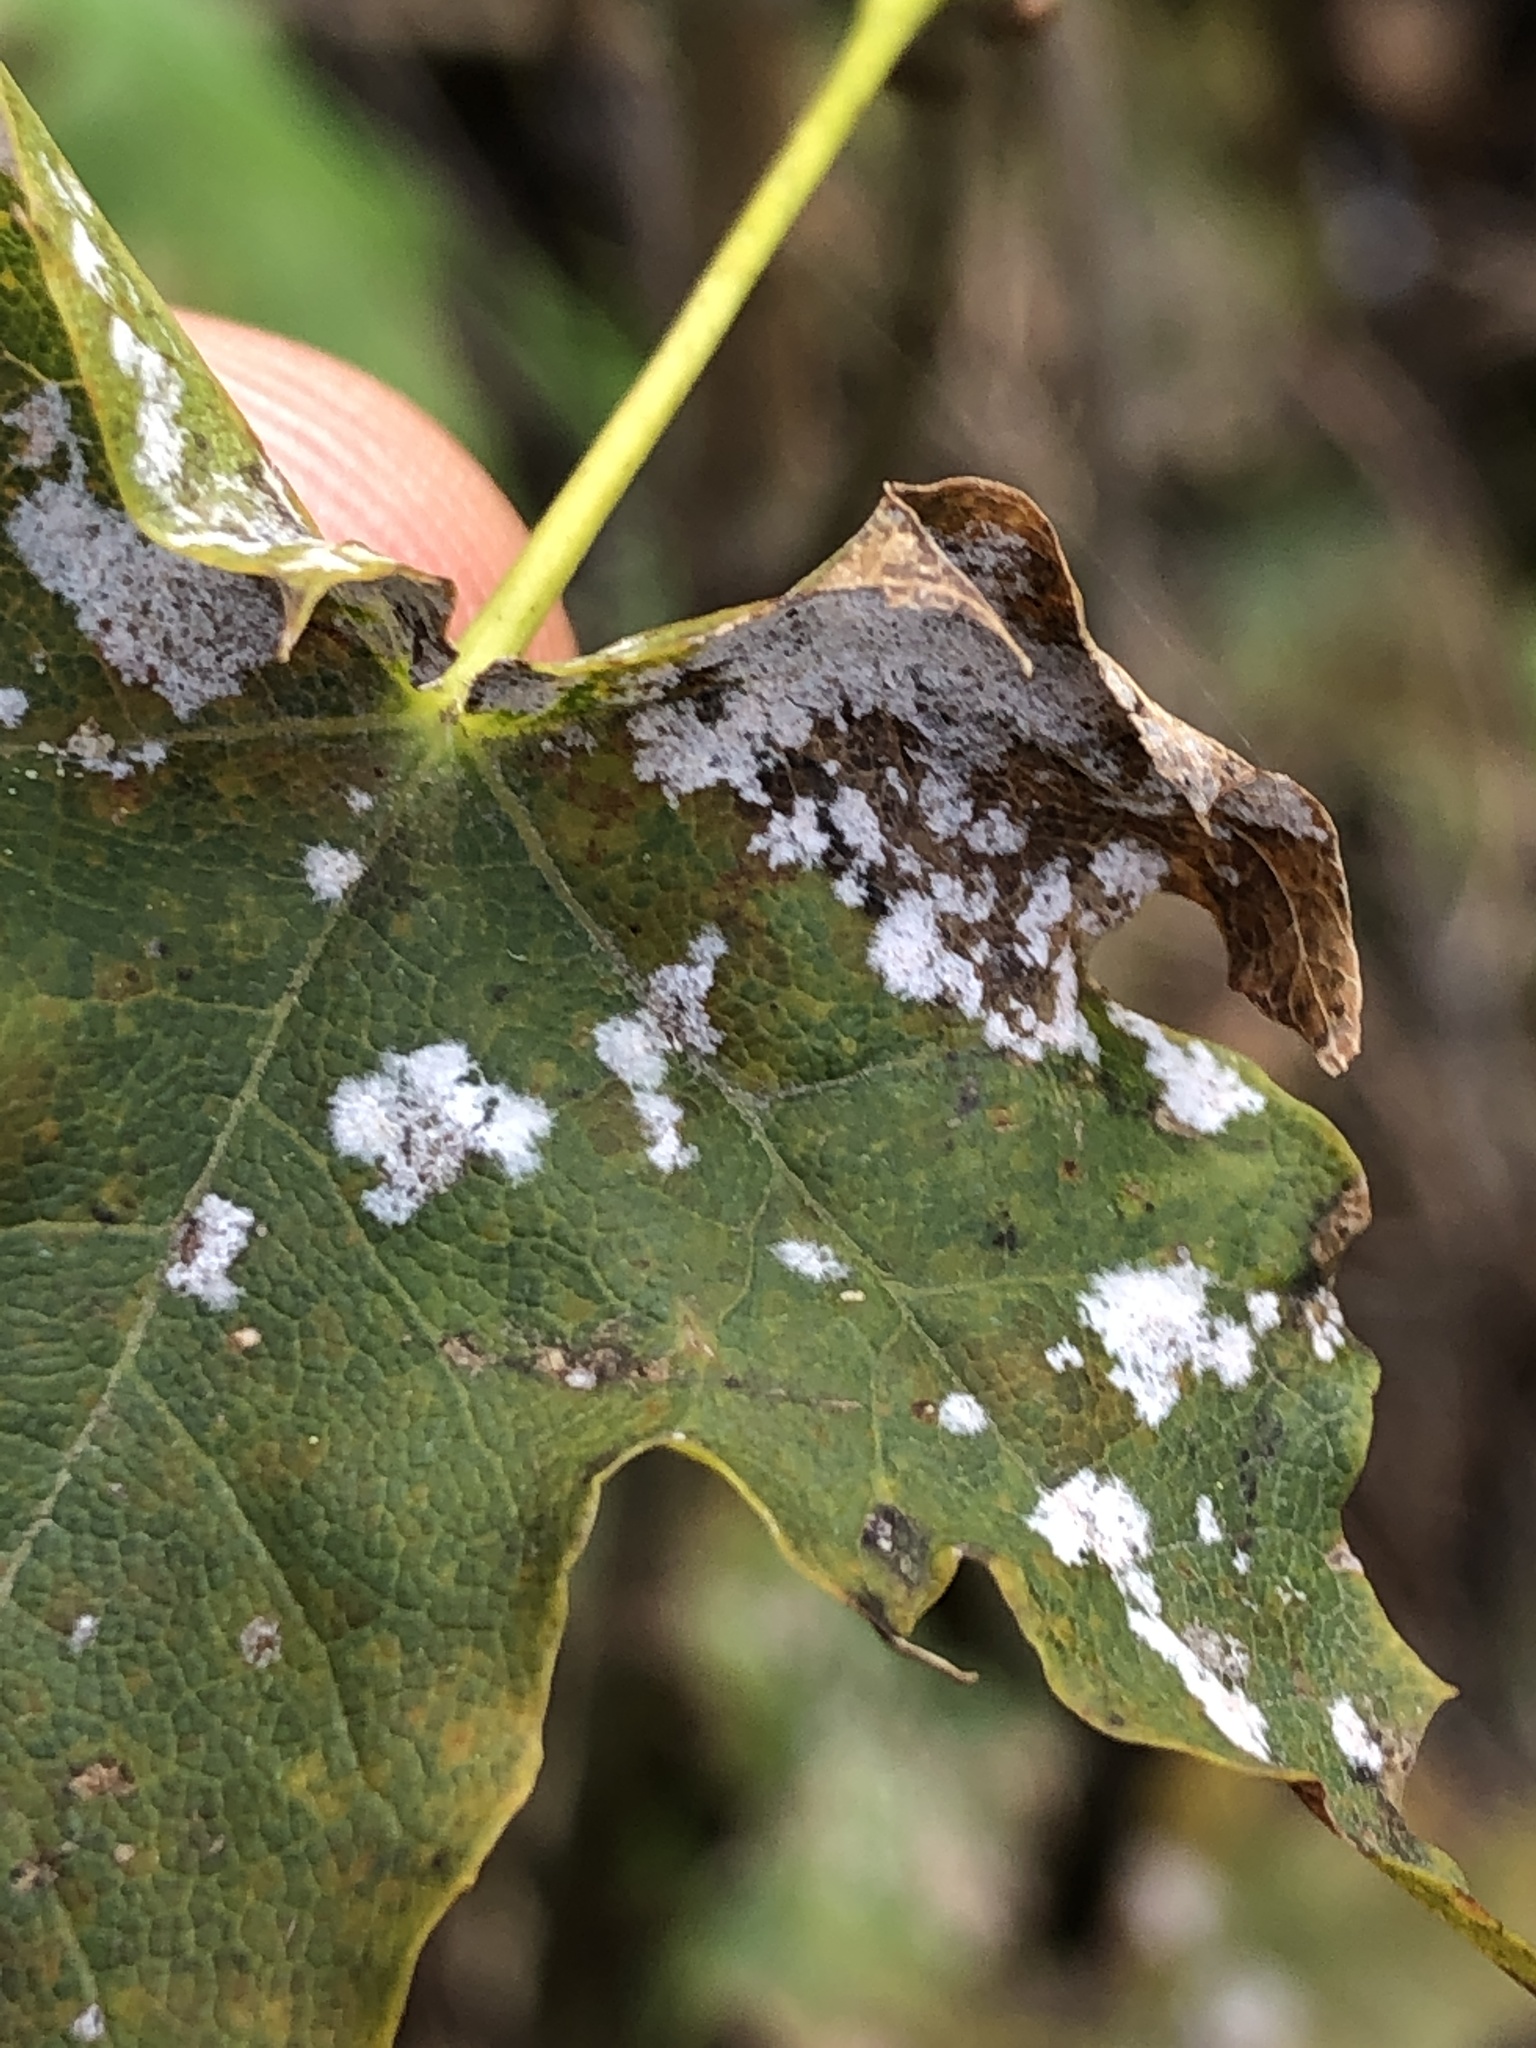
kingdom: Fungi
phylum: Ascomycota
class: Leotiomycetes
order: Helotiales
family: Erysiphaceae
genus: Sawadaea
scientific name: Sawadaea tulasnei
